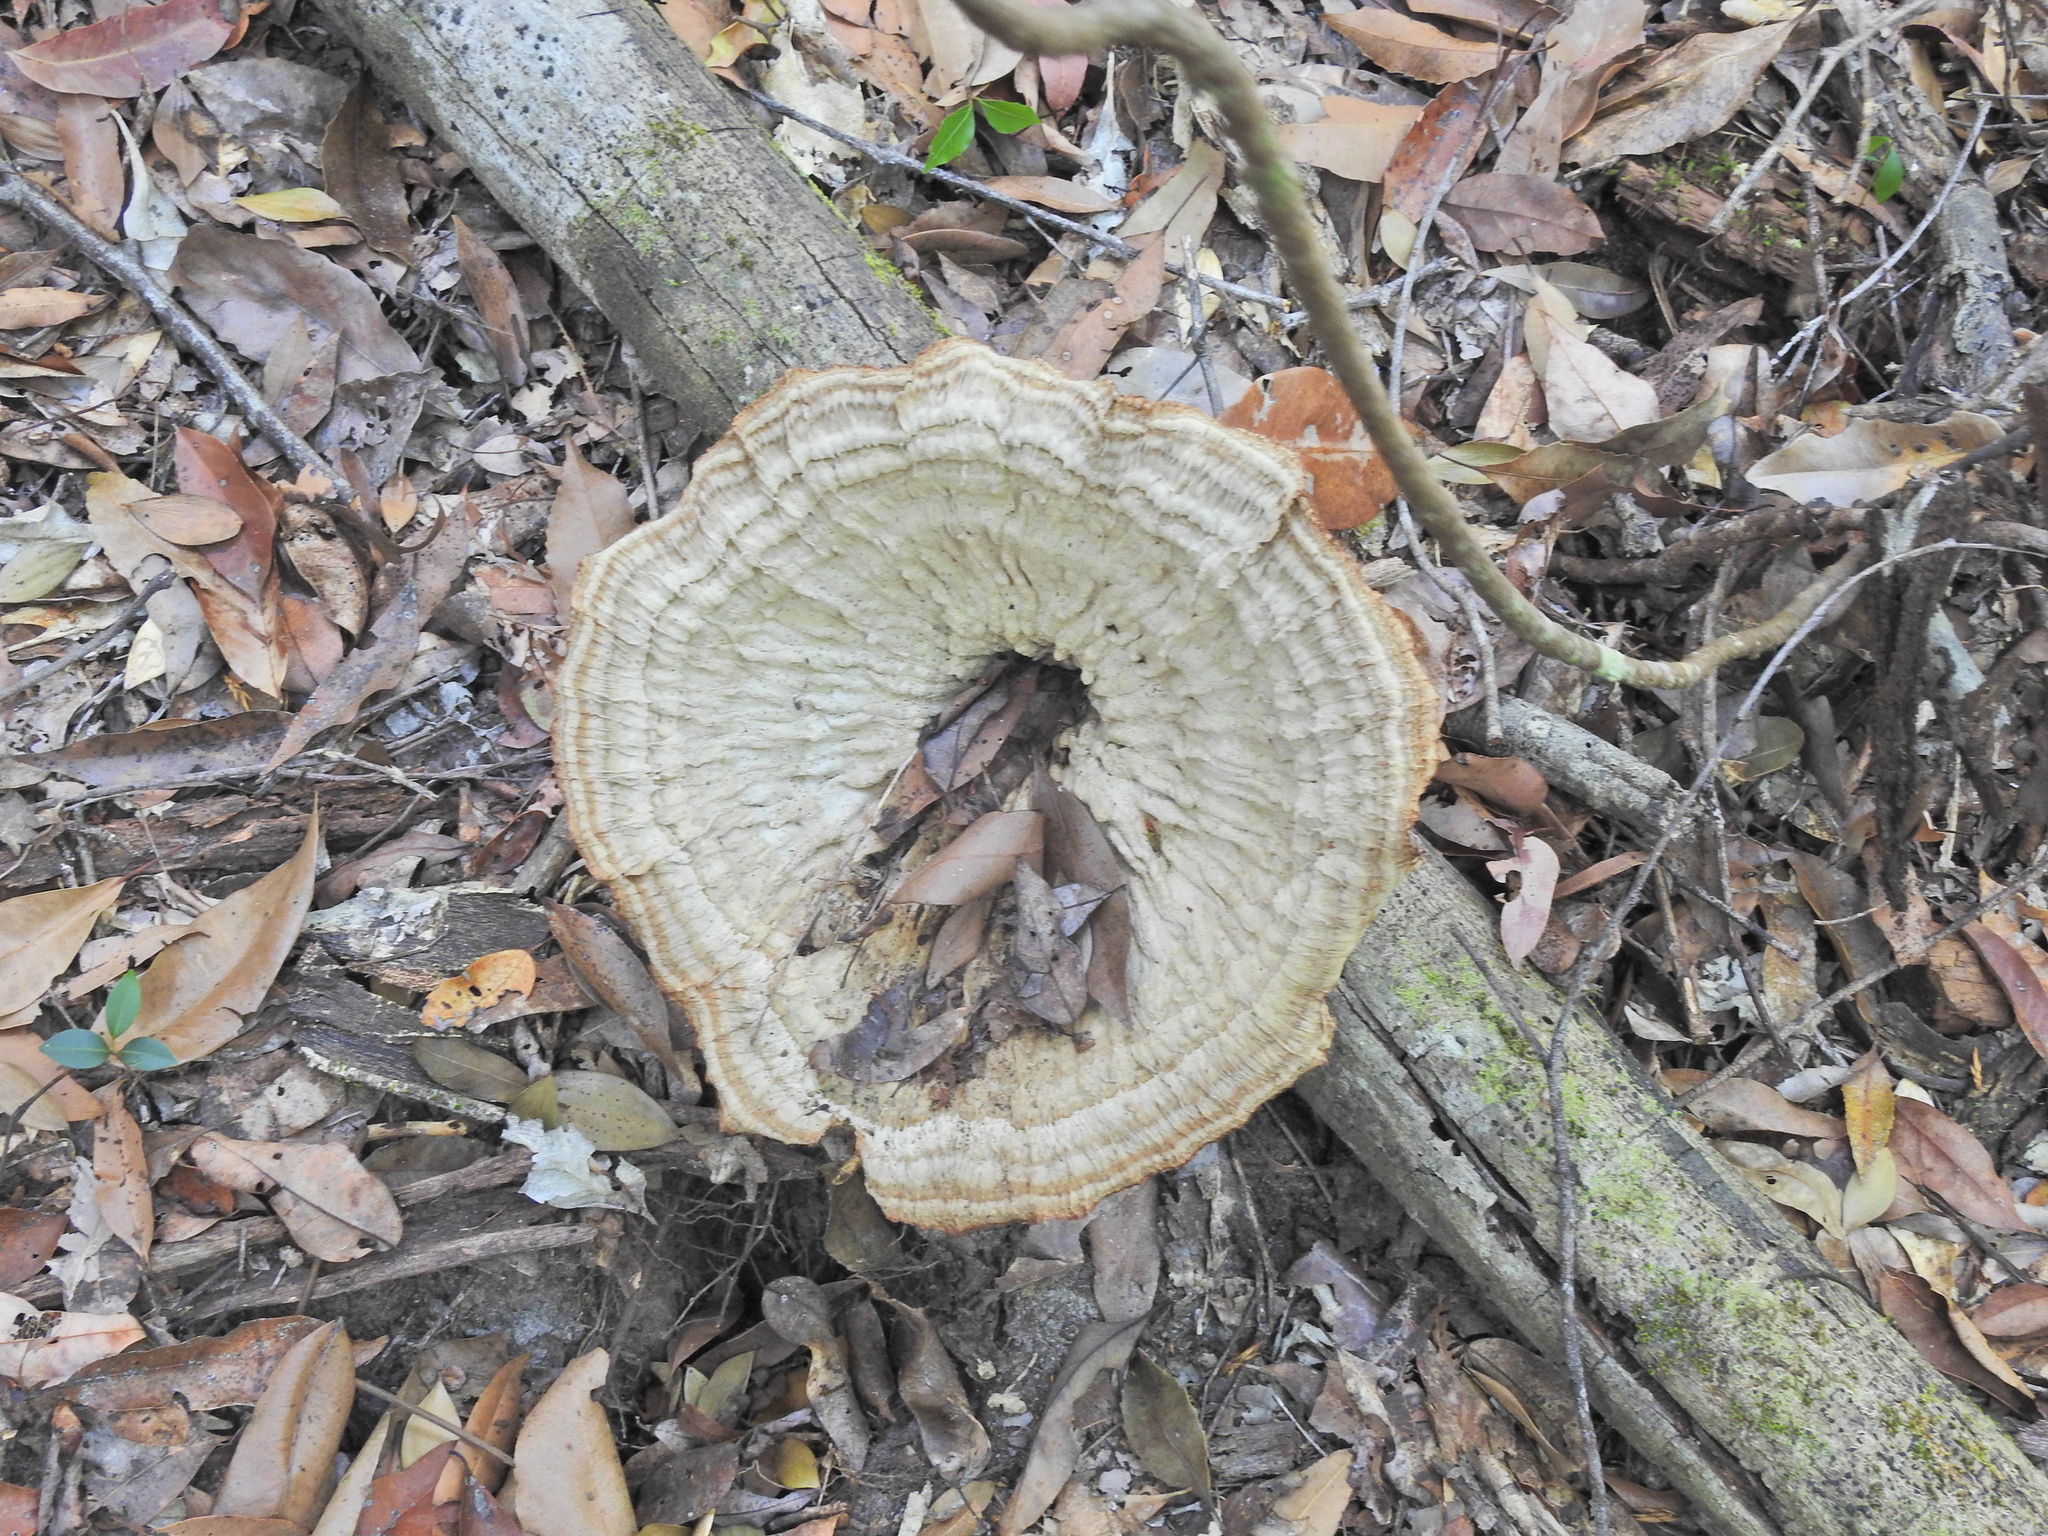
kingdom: Fungi
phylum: Basidiomycota
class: Agaricomycetes
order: Polyporales
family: Panaceae
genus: Cymatoderma
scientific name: Cymatoderma elegans
